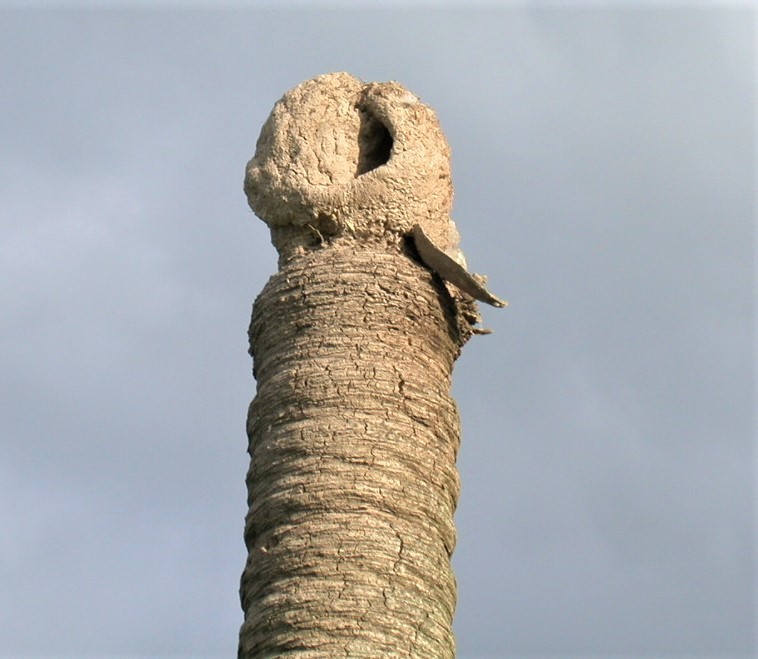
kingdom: Animalia
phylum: Chordata
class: Aves
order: Passeriformes
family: Furnariidae
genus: Furnarius
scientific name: Furnarius rufus
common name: Rufous hornero
